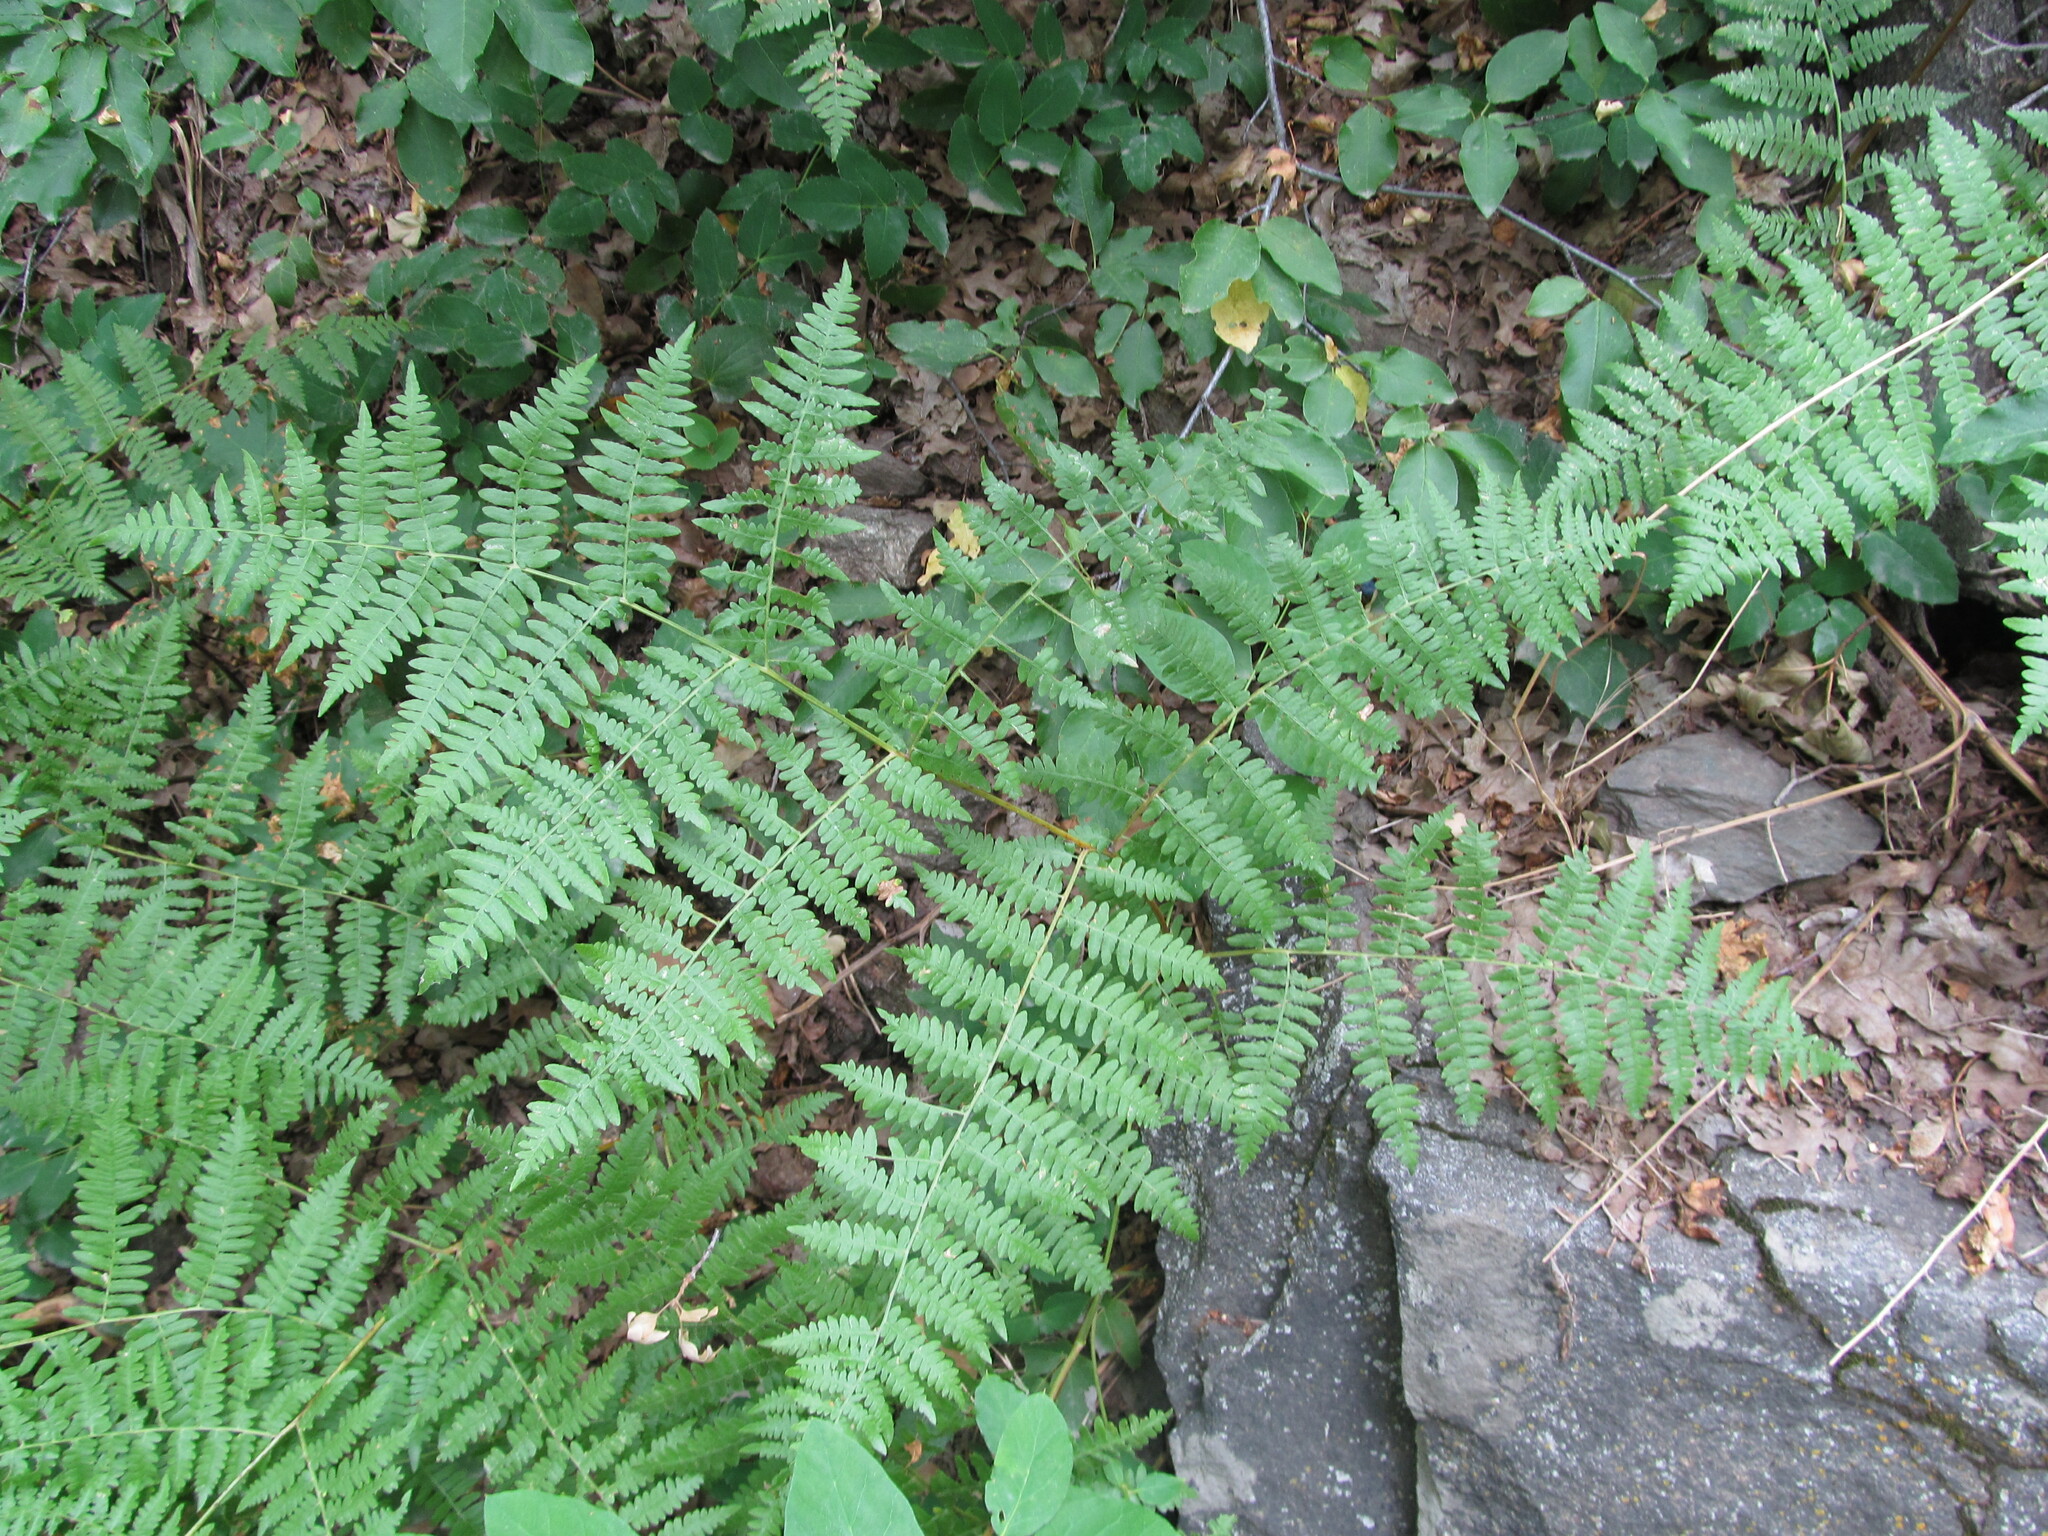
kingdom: Plantae
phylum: Tracheophyta
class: Polypodiopsida
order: Polypodiales
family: Dennstaedtiaceae
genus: Pteridium
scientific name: Pteridium aquilinum
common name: Bracken
